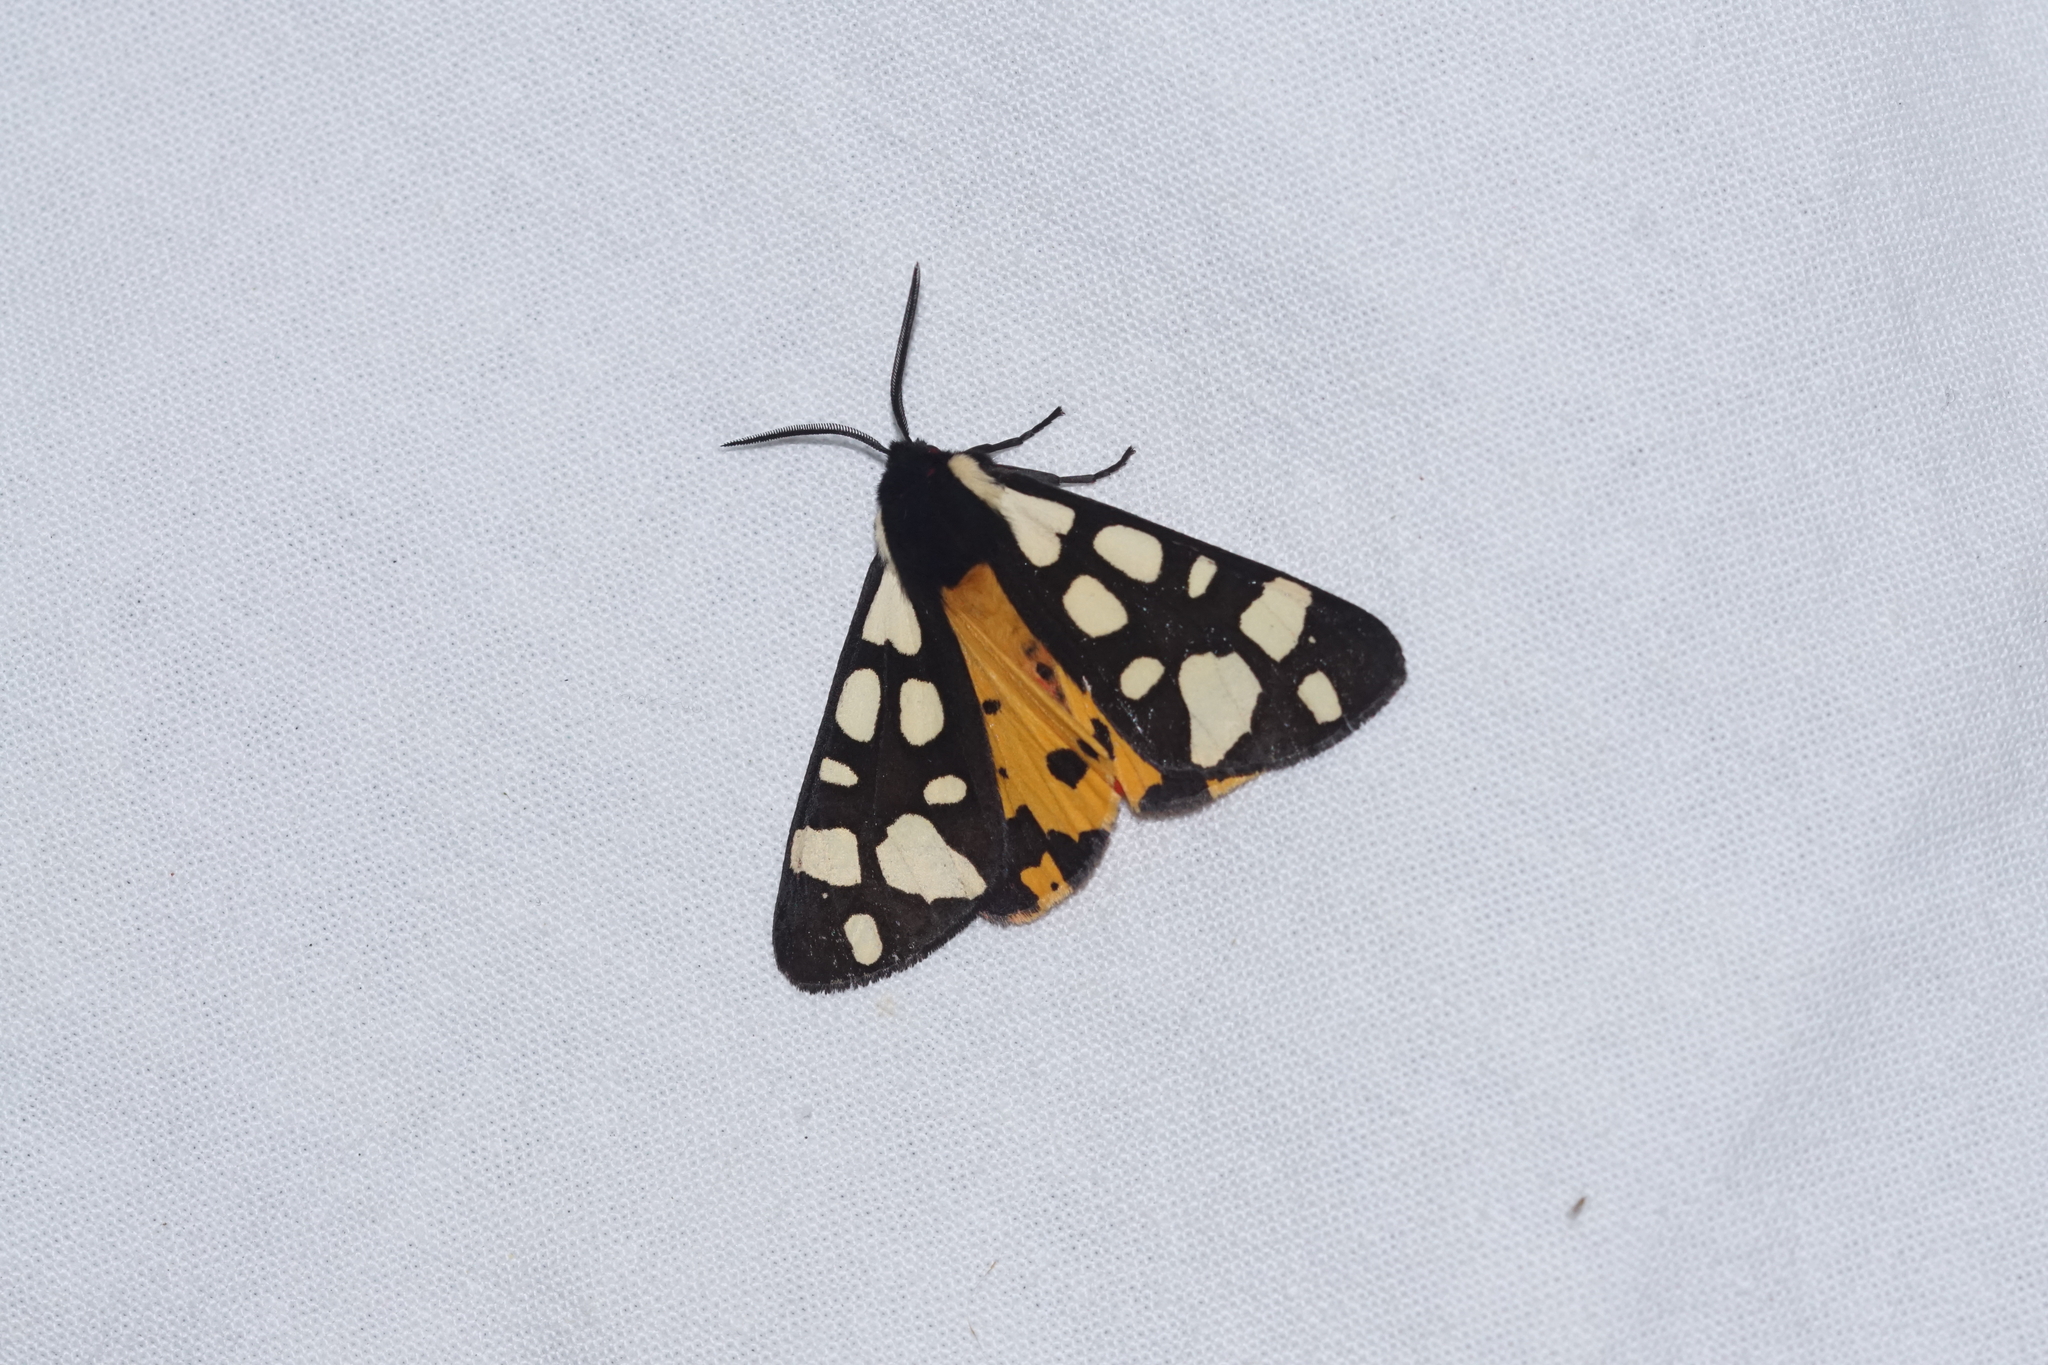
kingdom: Animalia
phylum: Arthropoda
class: Insecta
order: Lepidoptera
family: Erebidae
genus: Epicallia
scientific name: Epicallia villica
